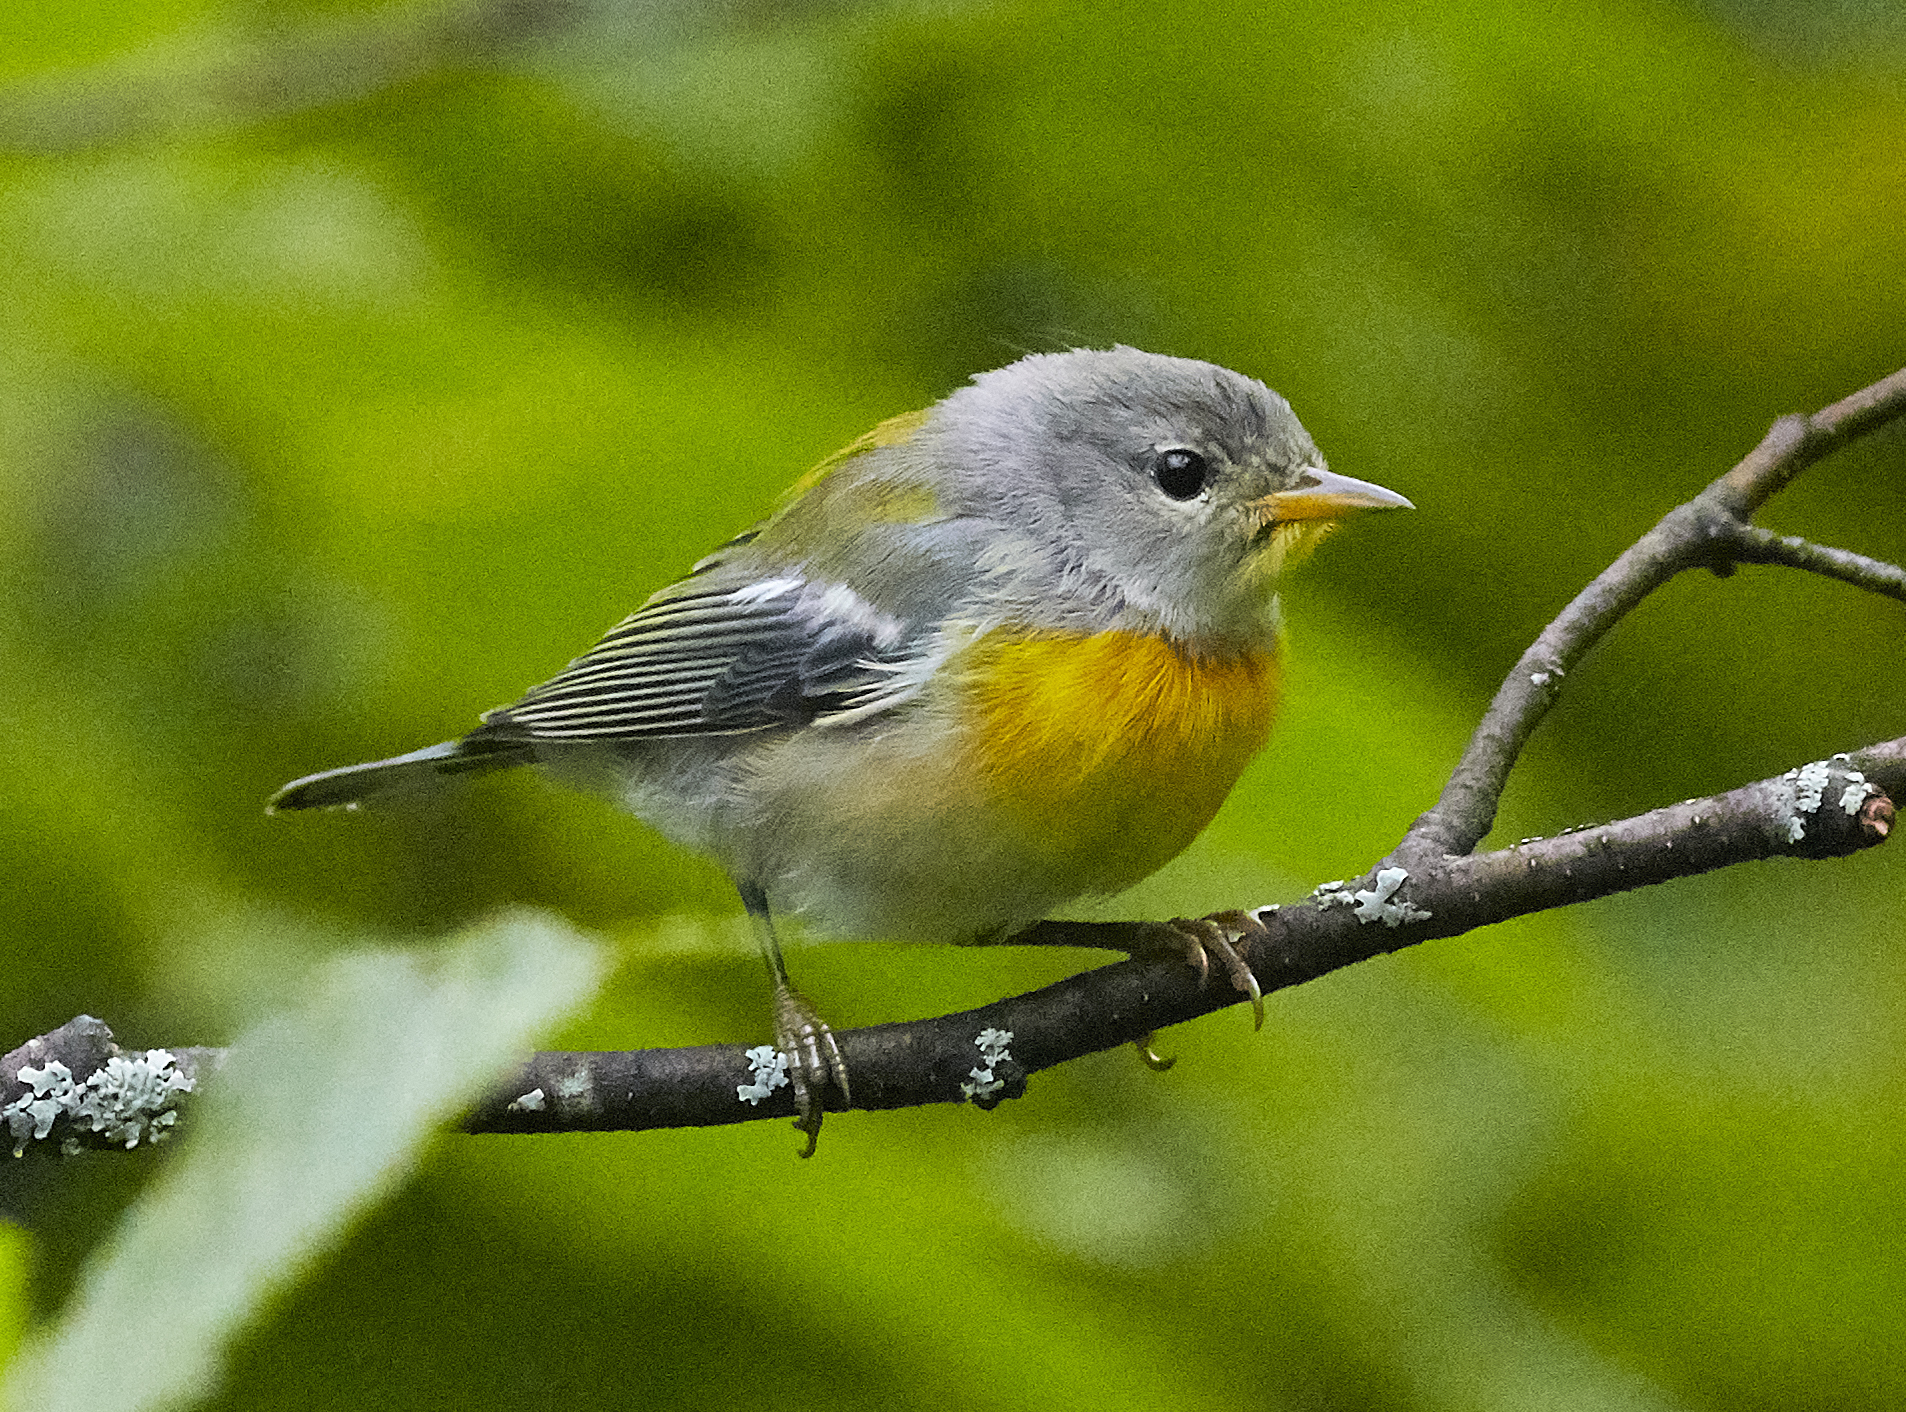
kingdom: Animalia
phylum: Chordata
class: Aves
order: Passeriformes
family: Parulidae
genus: Setophaga
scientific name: Setophaga americana
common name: Northern parula
